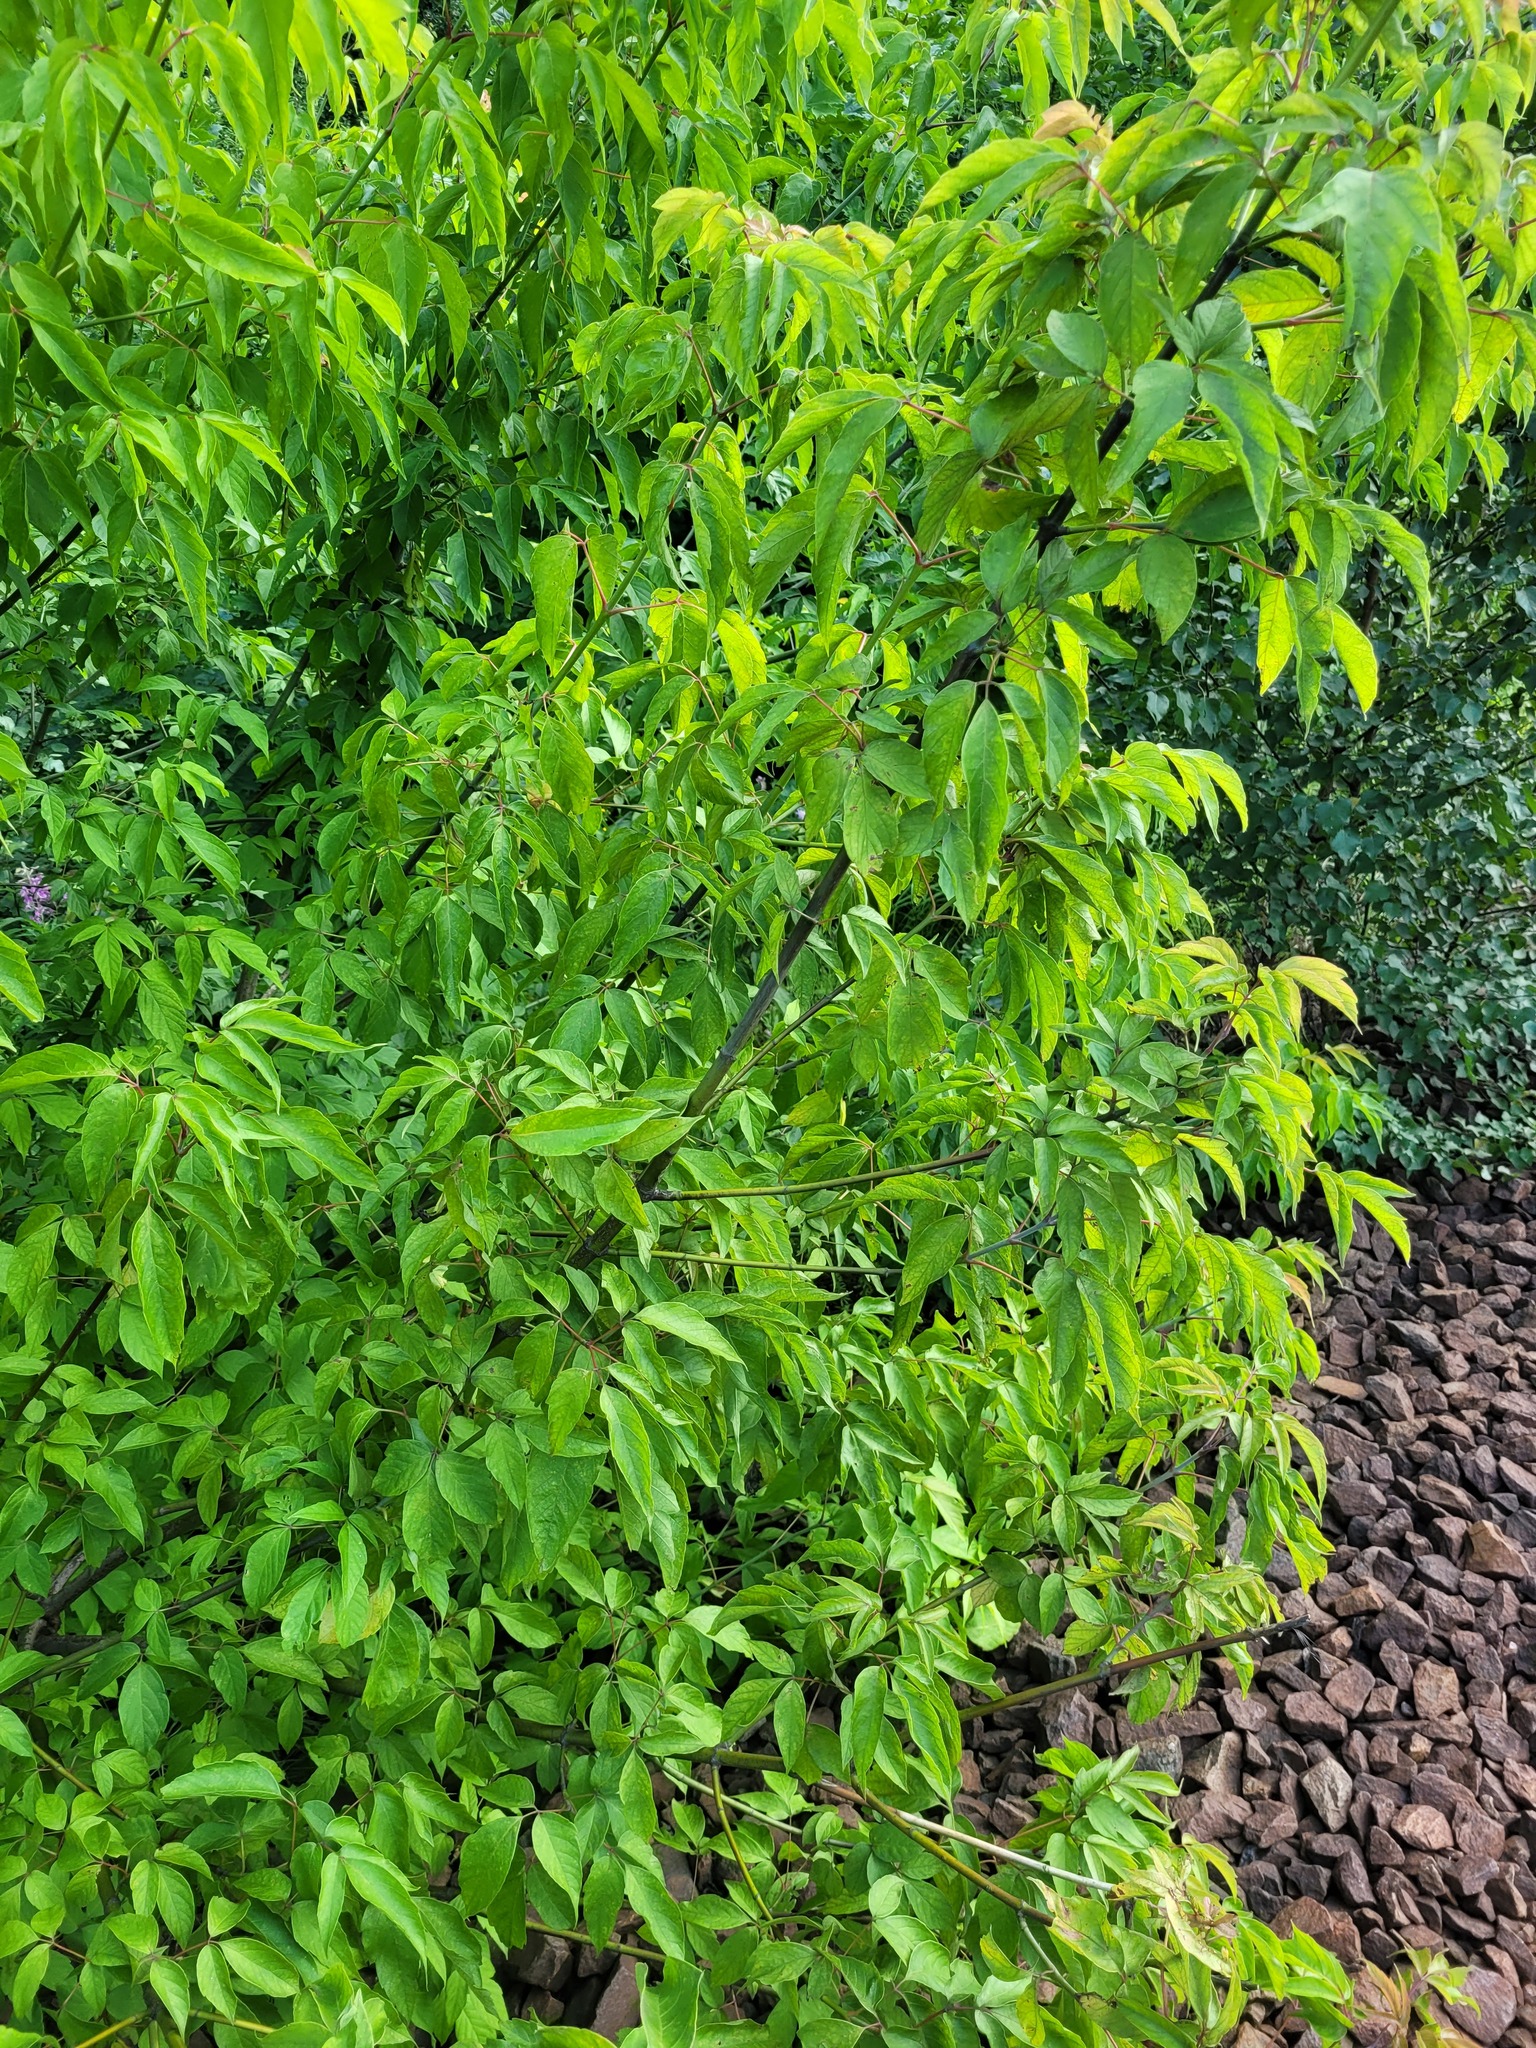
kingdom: Plantae
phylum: Tracheophyta
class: Magnoliopsida
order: Sapindales
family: Sapindaceae
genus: Acer
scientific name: Acer negundo
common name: Ashleaf maple
